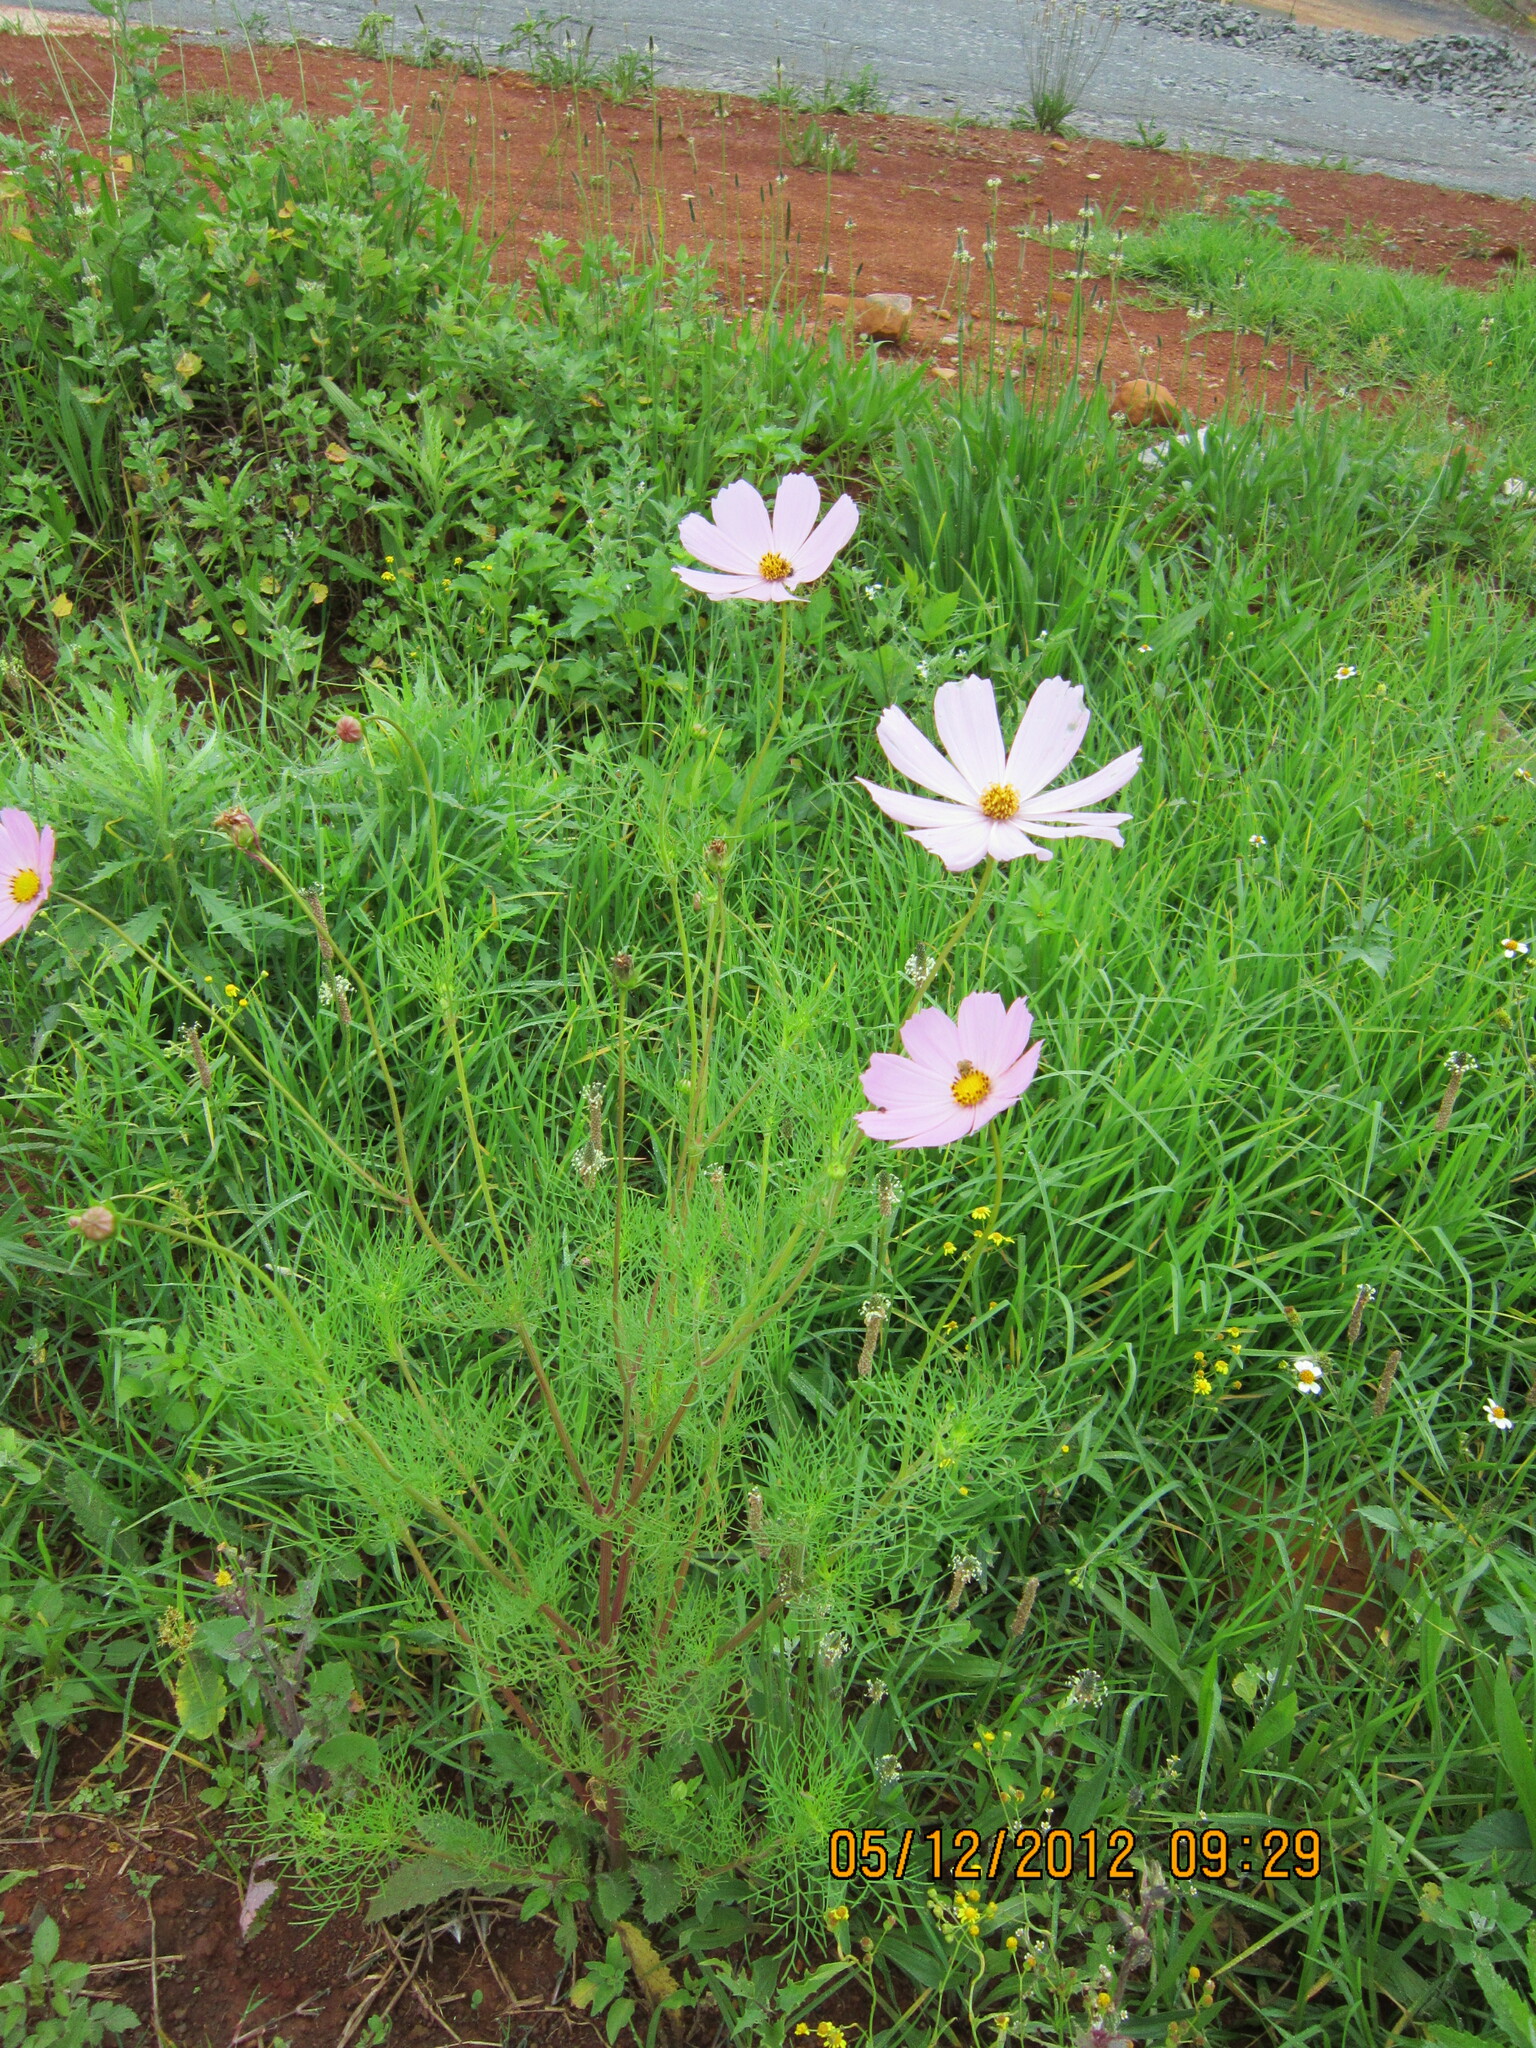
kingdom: Plantae
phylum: Tracheophyta
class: Magnoliopsida
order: Asterales
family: Asteraceae
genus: Cosmos
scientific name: Cosmos bipinnatus
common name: Garden cosmos
